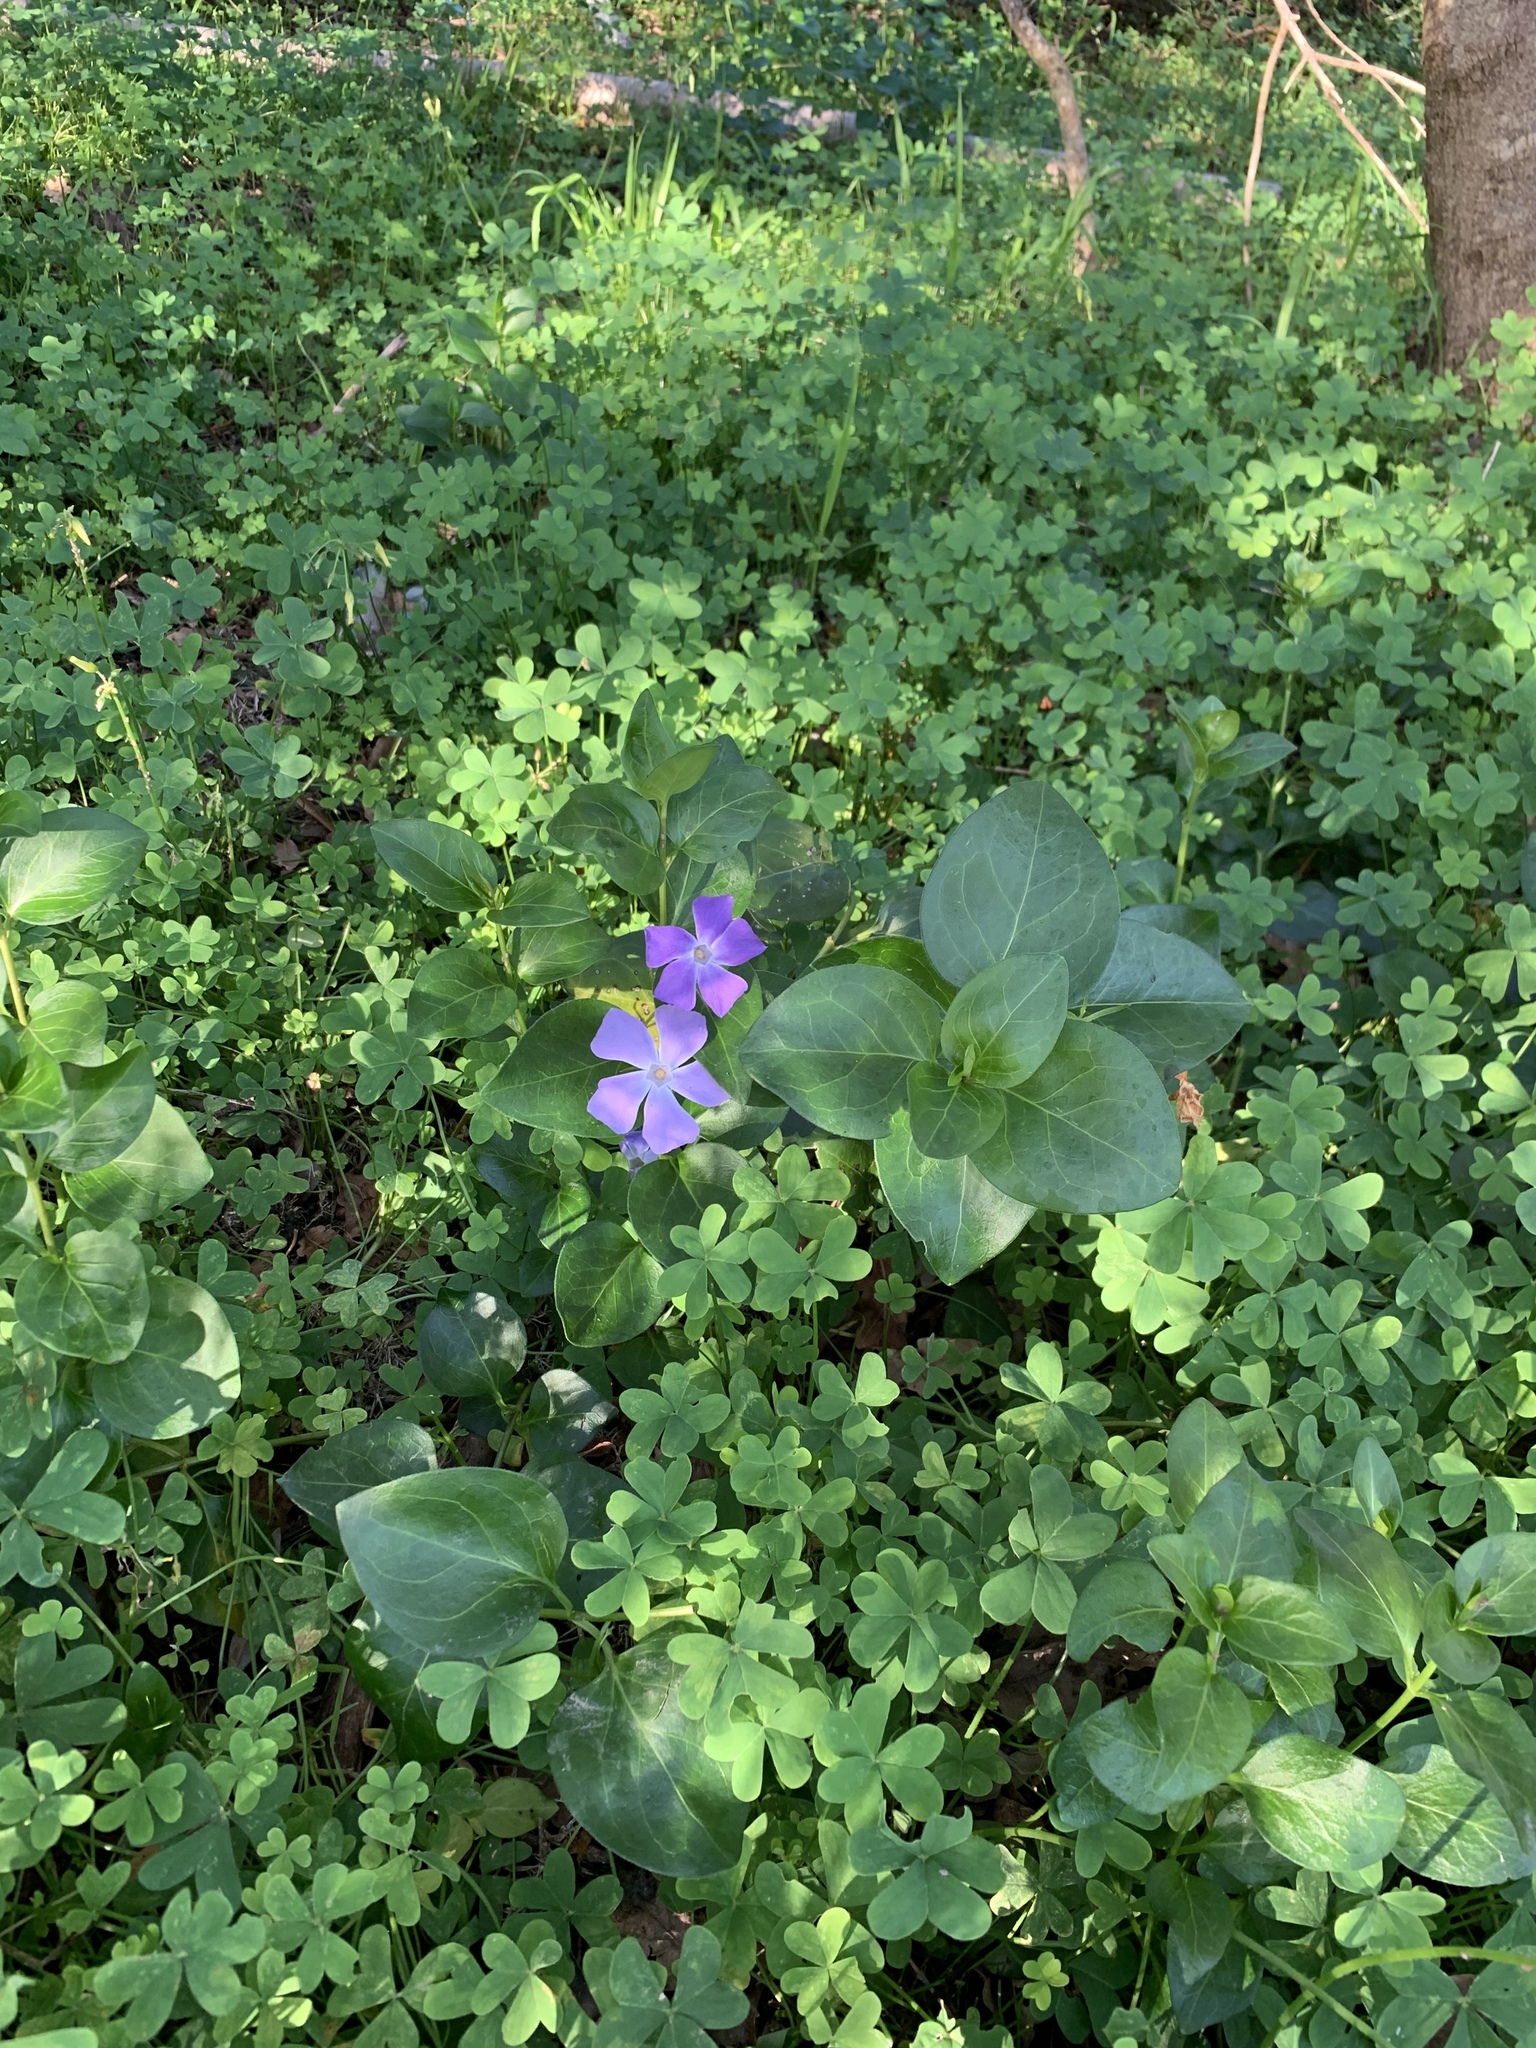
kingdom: Plantae
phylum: Tracheophyta
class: Magnoliopsida
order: Gentianales
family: Apocynaceae
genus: Vinca
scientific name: Vinca major
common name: Greater periwinkle
